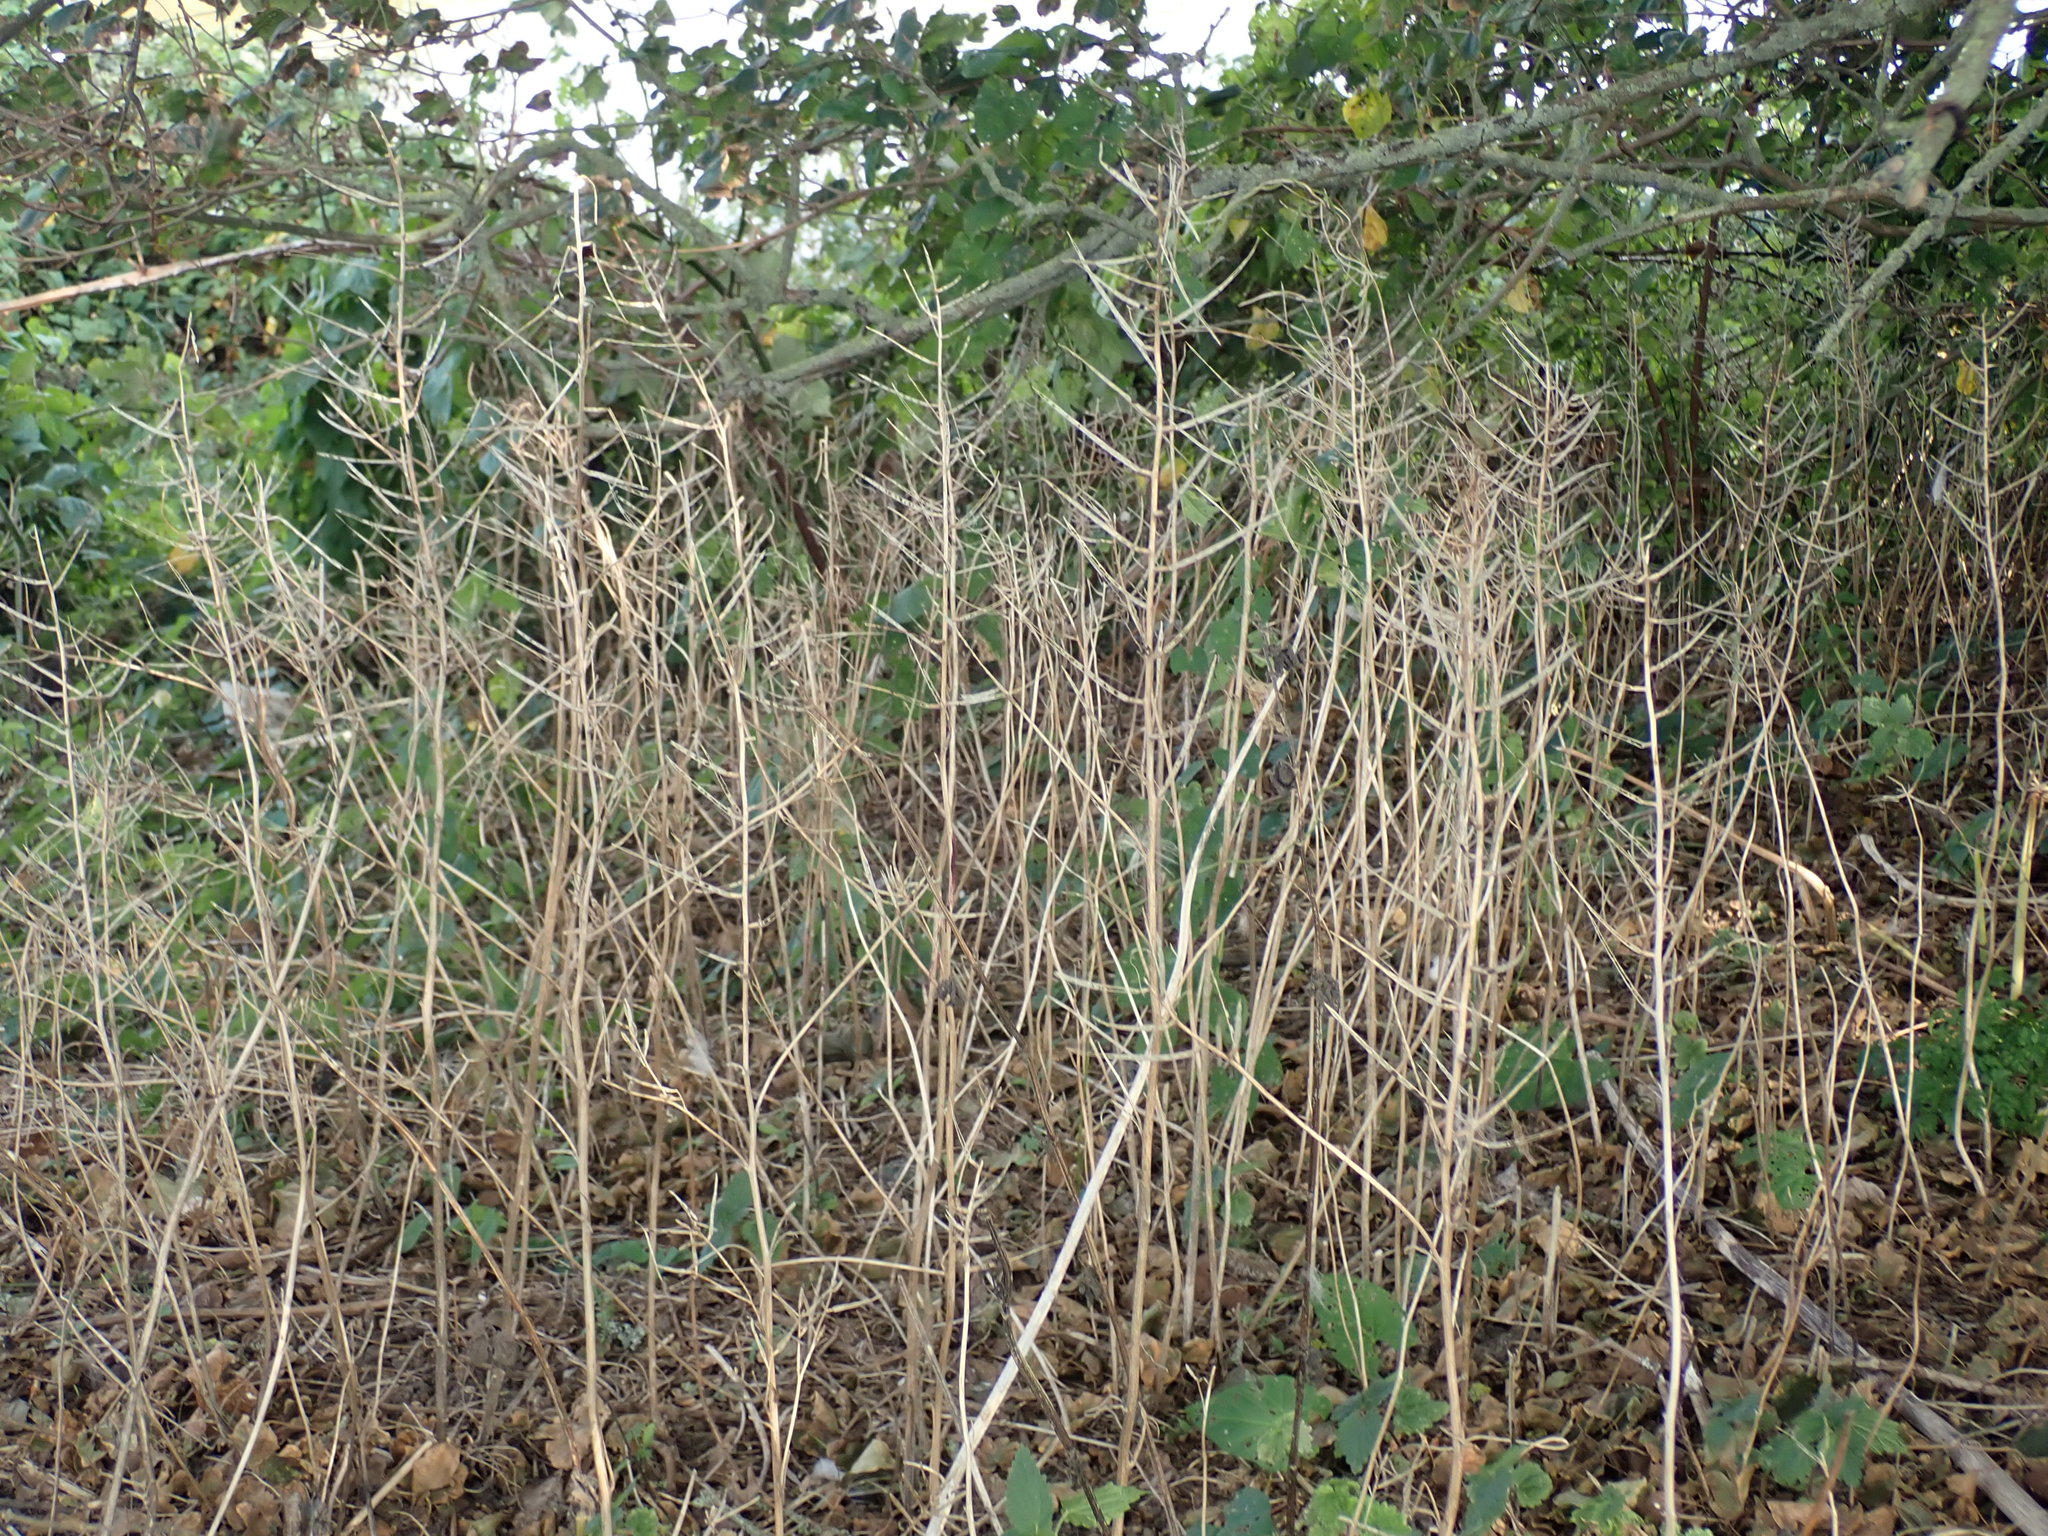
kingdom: Plantae
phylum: Tracheophyta
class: Magnoliopsida
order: Brassicales
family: Brassicaceae
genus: Alliaria
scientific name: Alliaria petiolata
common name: Garlic mustard
